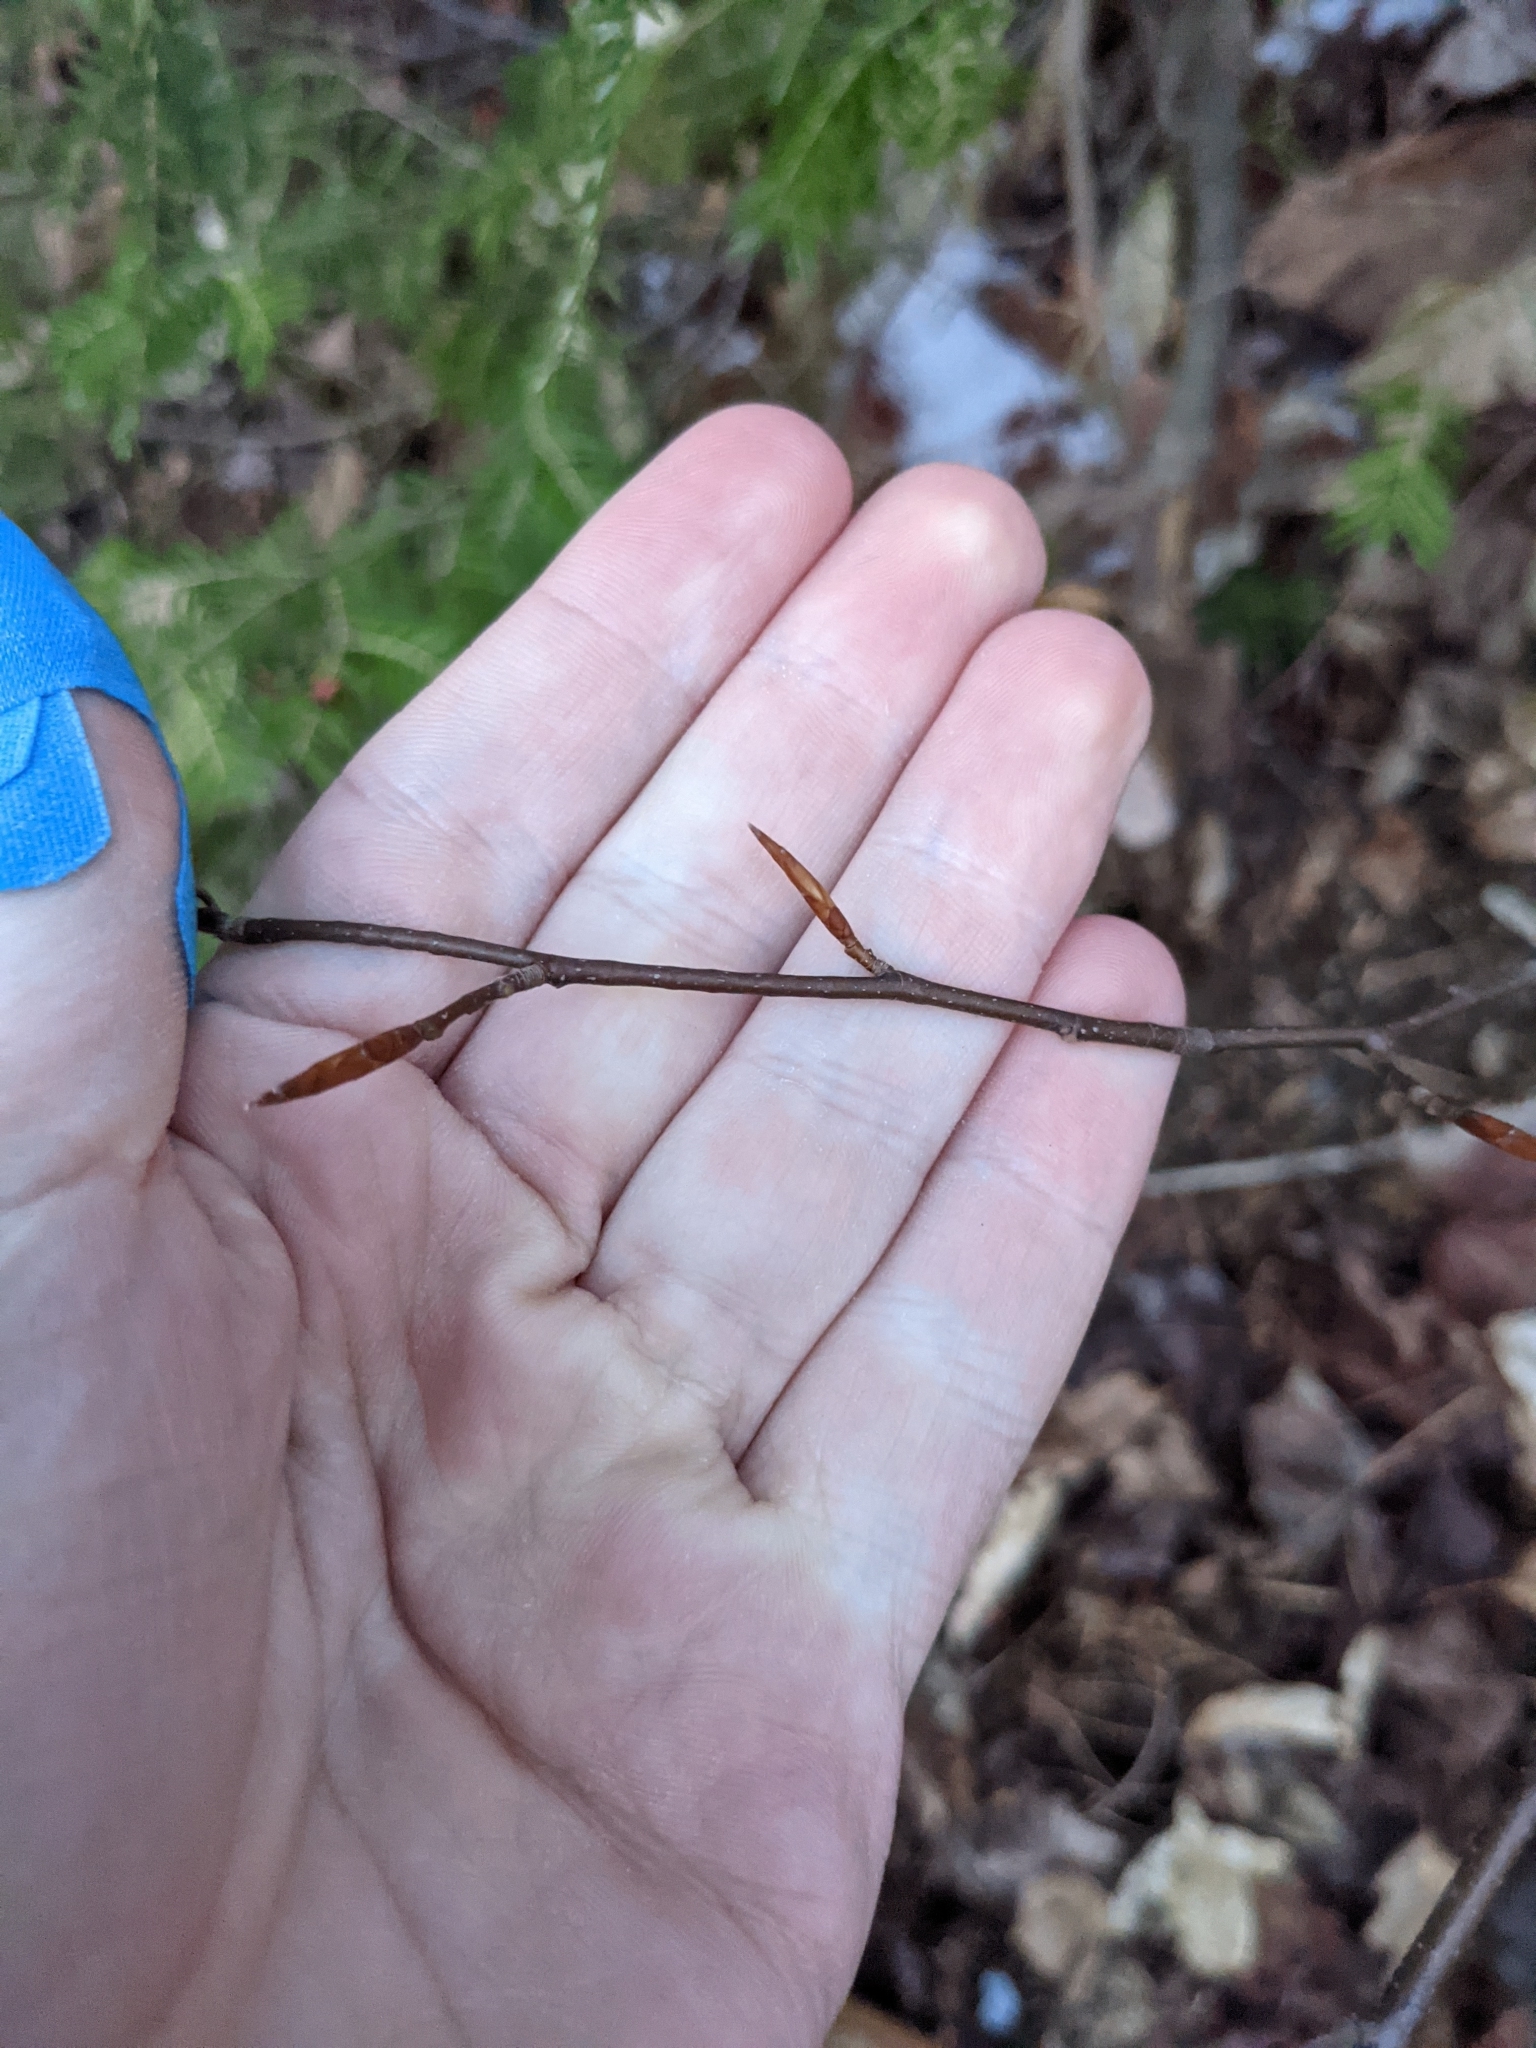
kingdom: Plantae
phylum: Tracheophyta
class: Magnoliopsida
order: Fagales
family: Fagaceae
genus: Fagus
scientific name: Fagus grandifolia
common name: American beech
